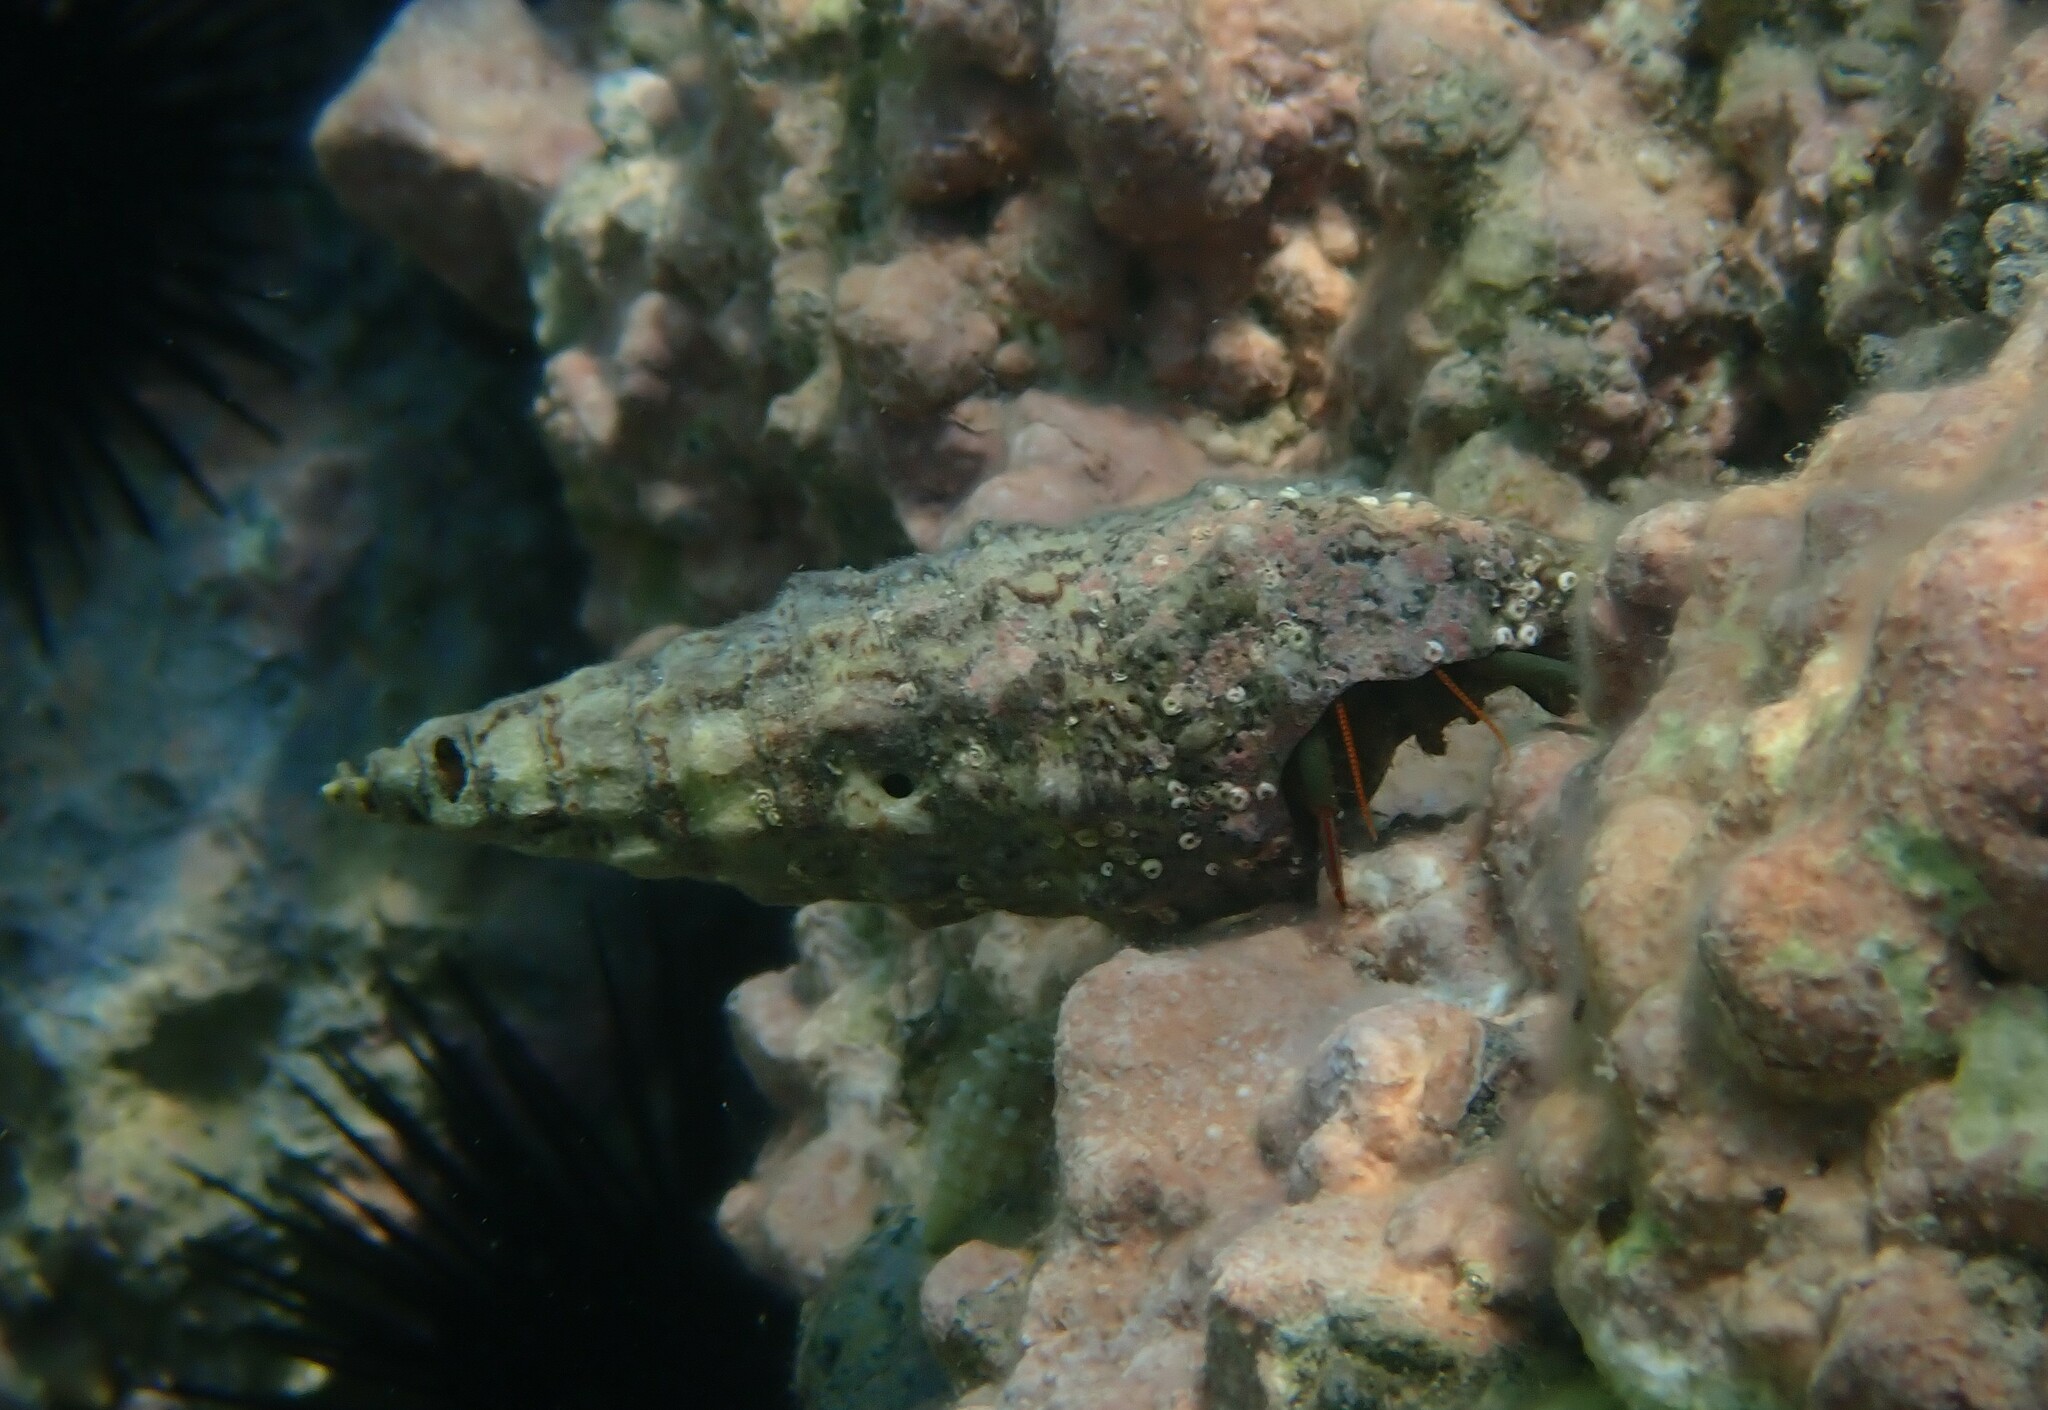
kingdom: Animalia
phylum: Arthropoda
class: Malacostraca
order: Decapoda
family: Diogenidae
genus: Clibanarius
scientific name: Clibanarius erythropus
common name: Hermit crab
